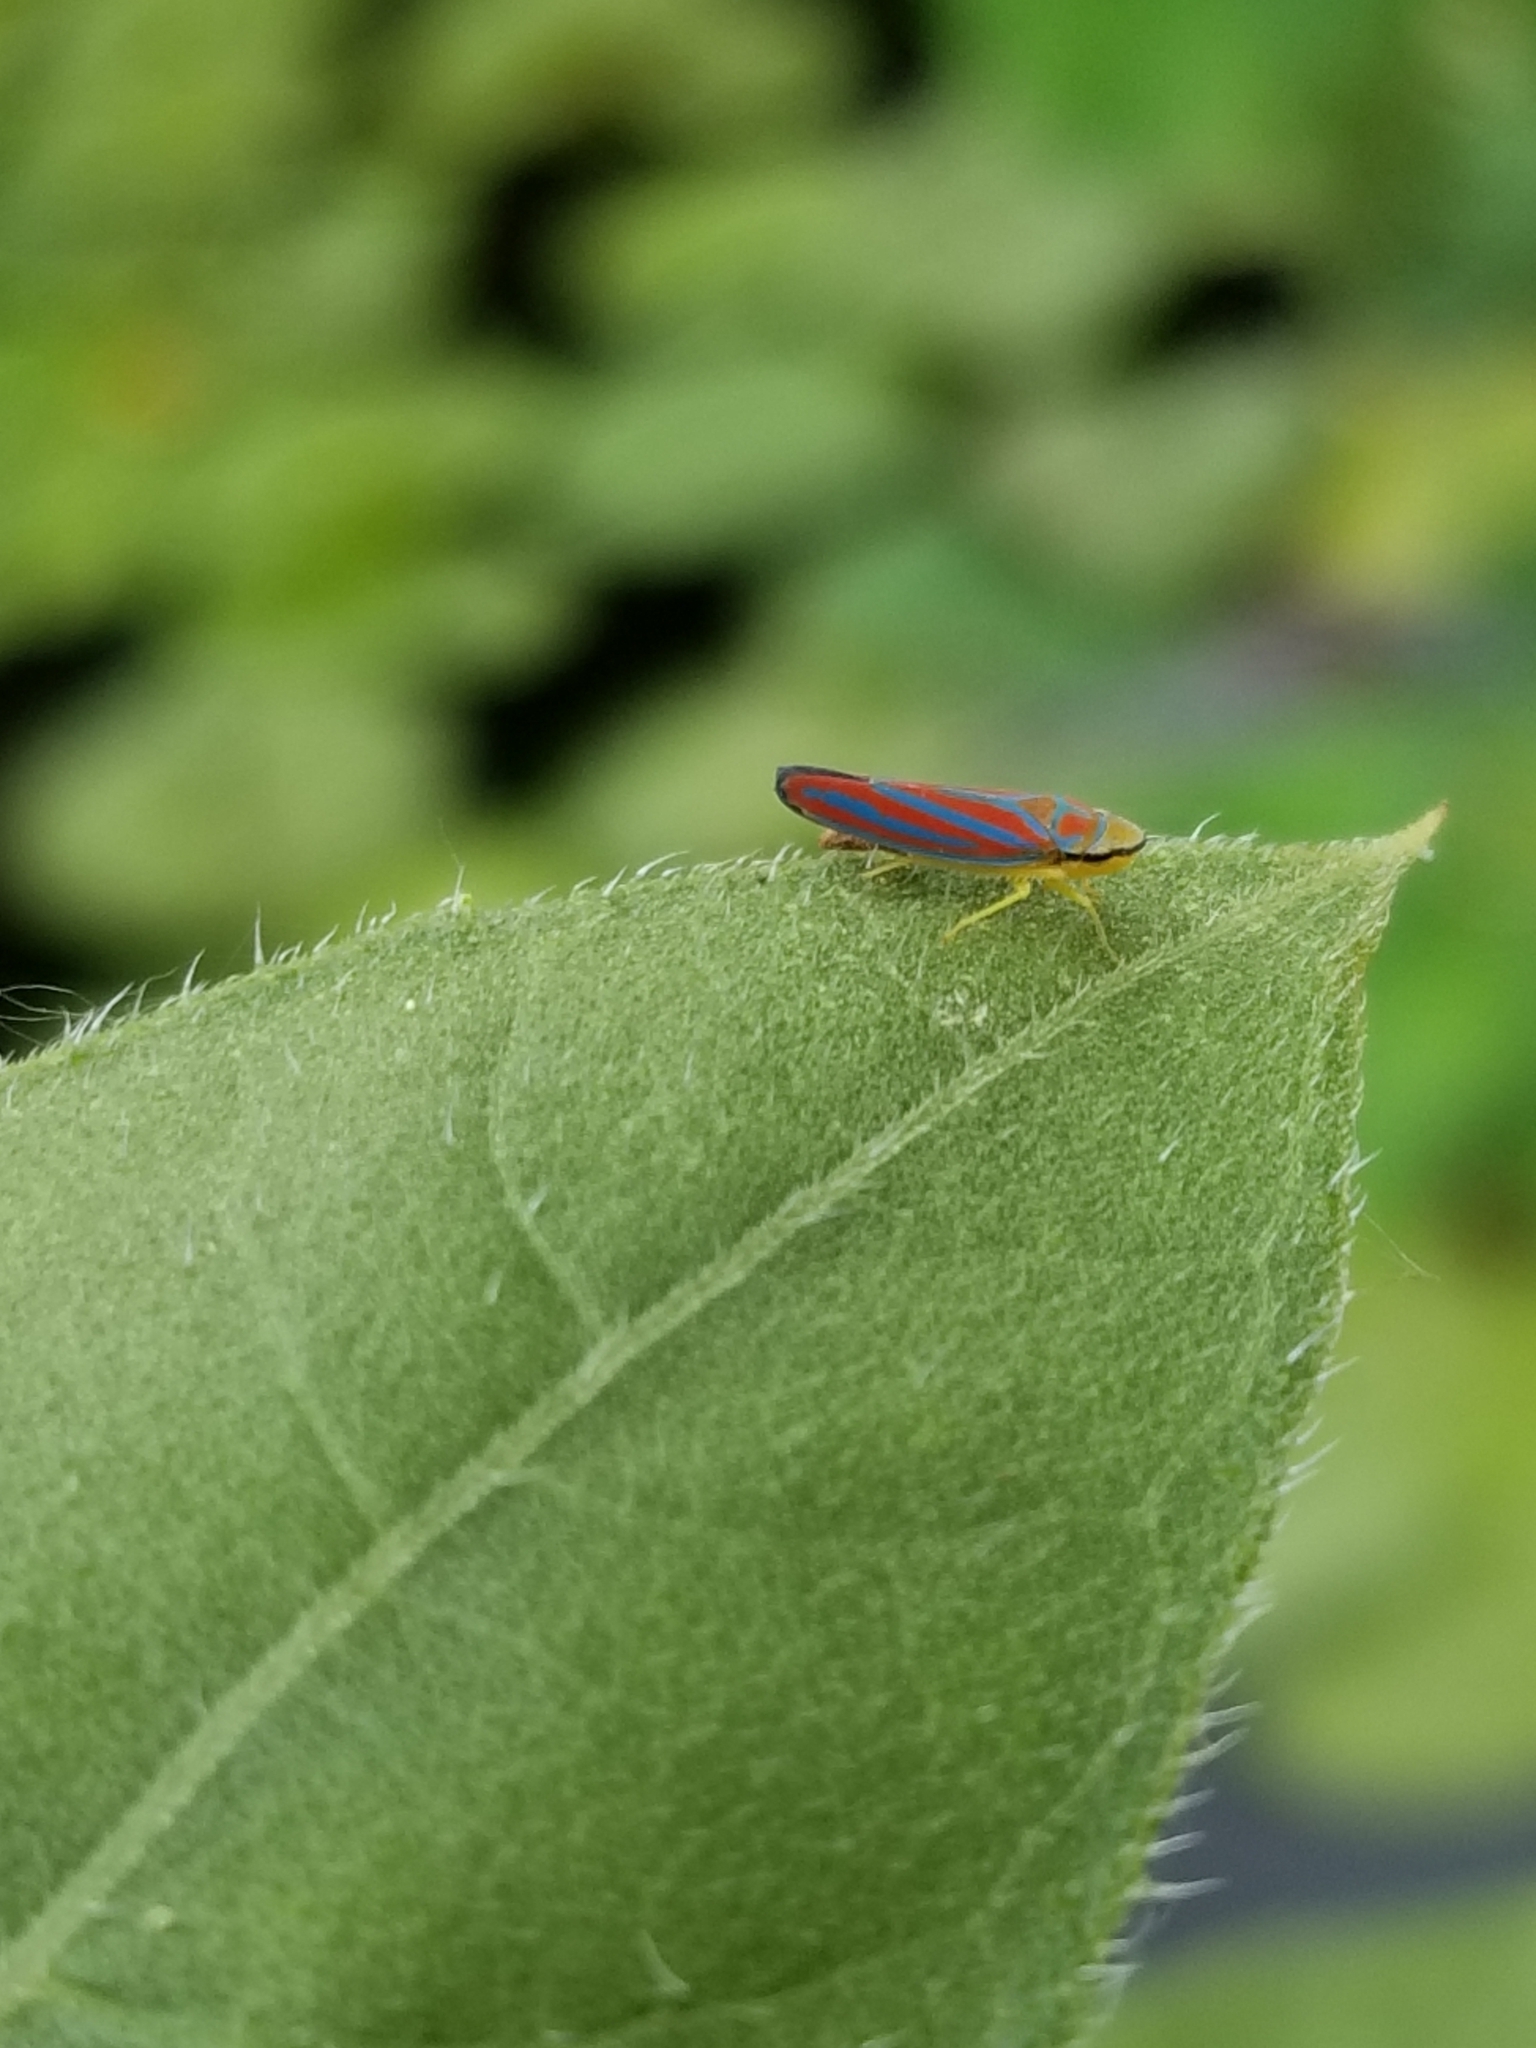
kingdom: Animalia
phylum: Arthropoda
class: Insecta
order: Hemiptera
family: Cicadellidae
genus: Graphocephala
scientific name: Graphocephala coccinea
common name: Candy-striped leafhopper
